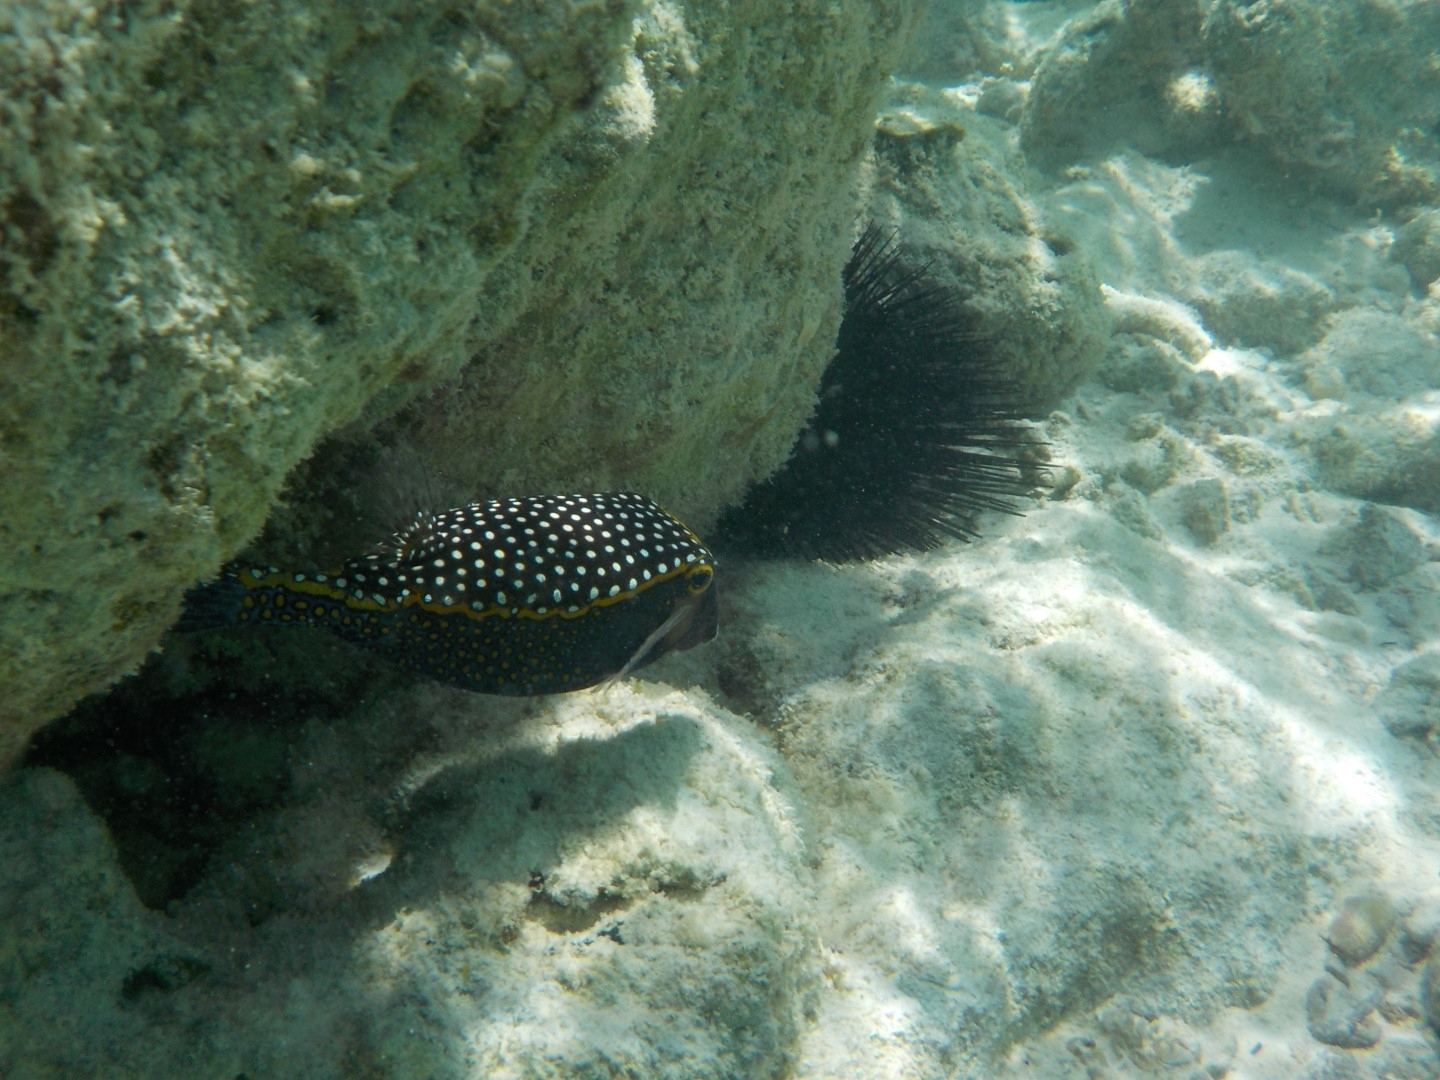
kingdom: Animalia
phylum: Chordata
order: Tetraodontiformes
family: Ostraciidae
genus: Ostracion
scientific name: Ostracion meleagris
